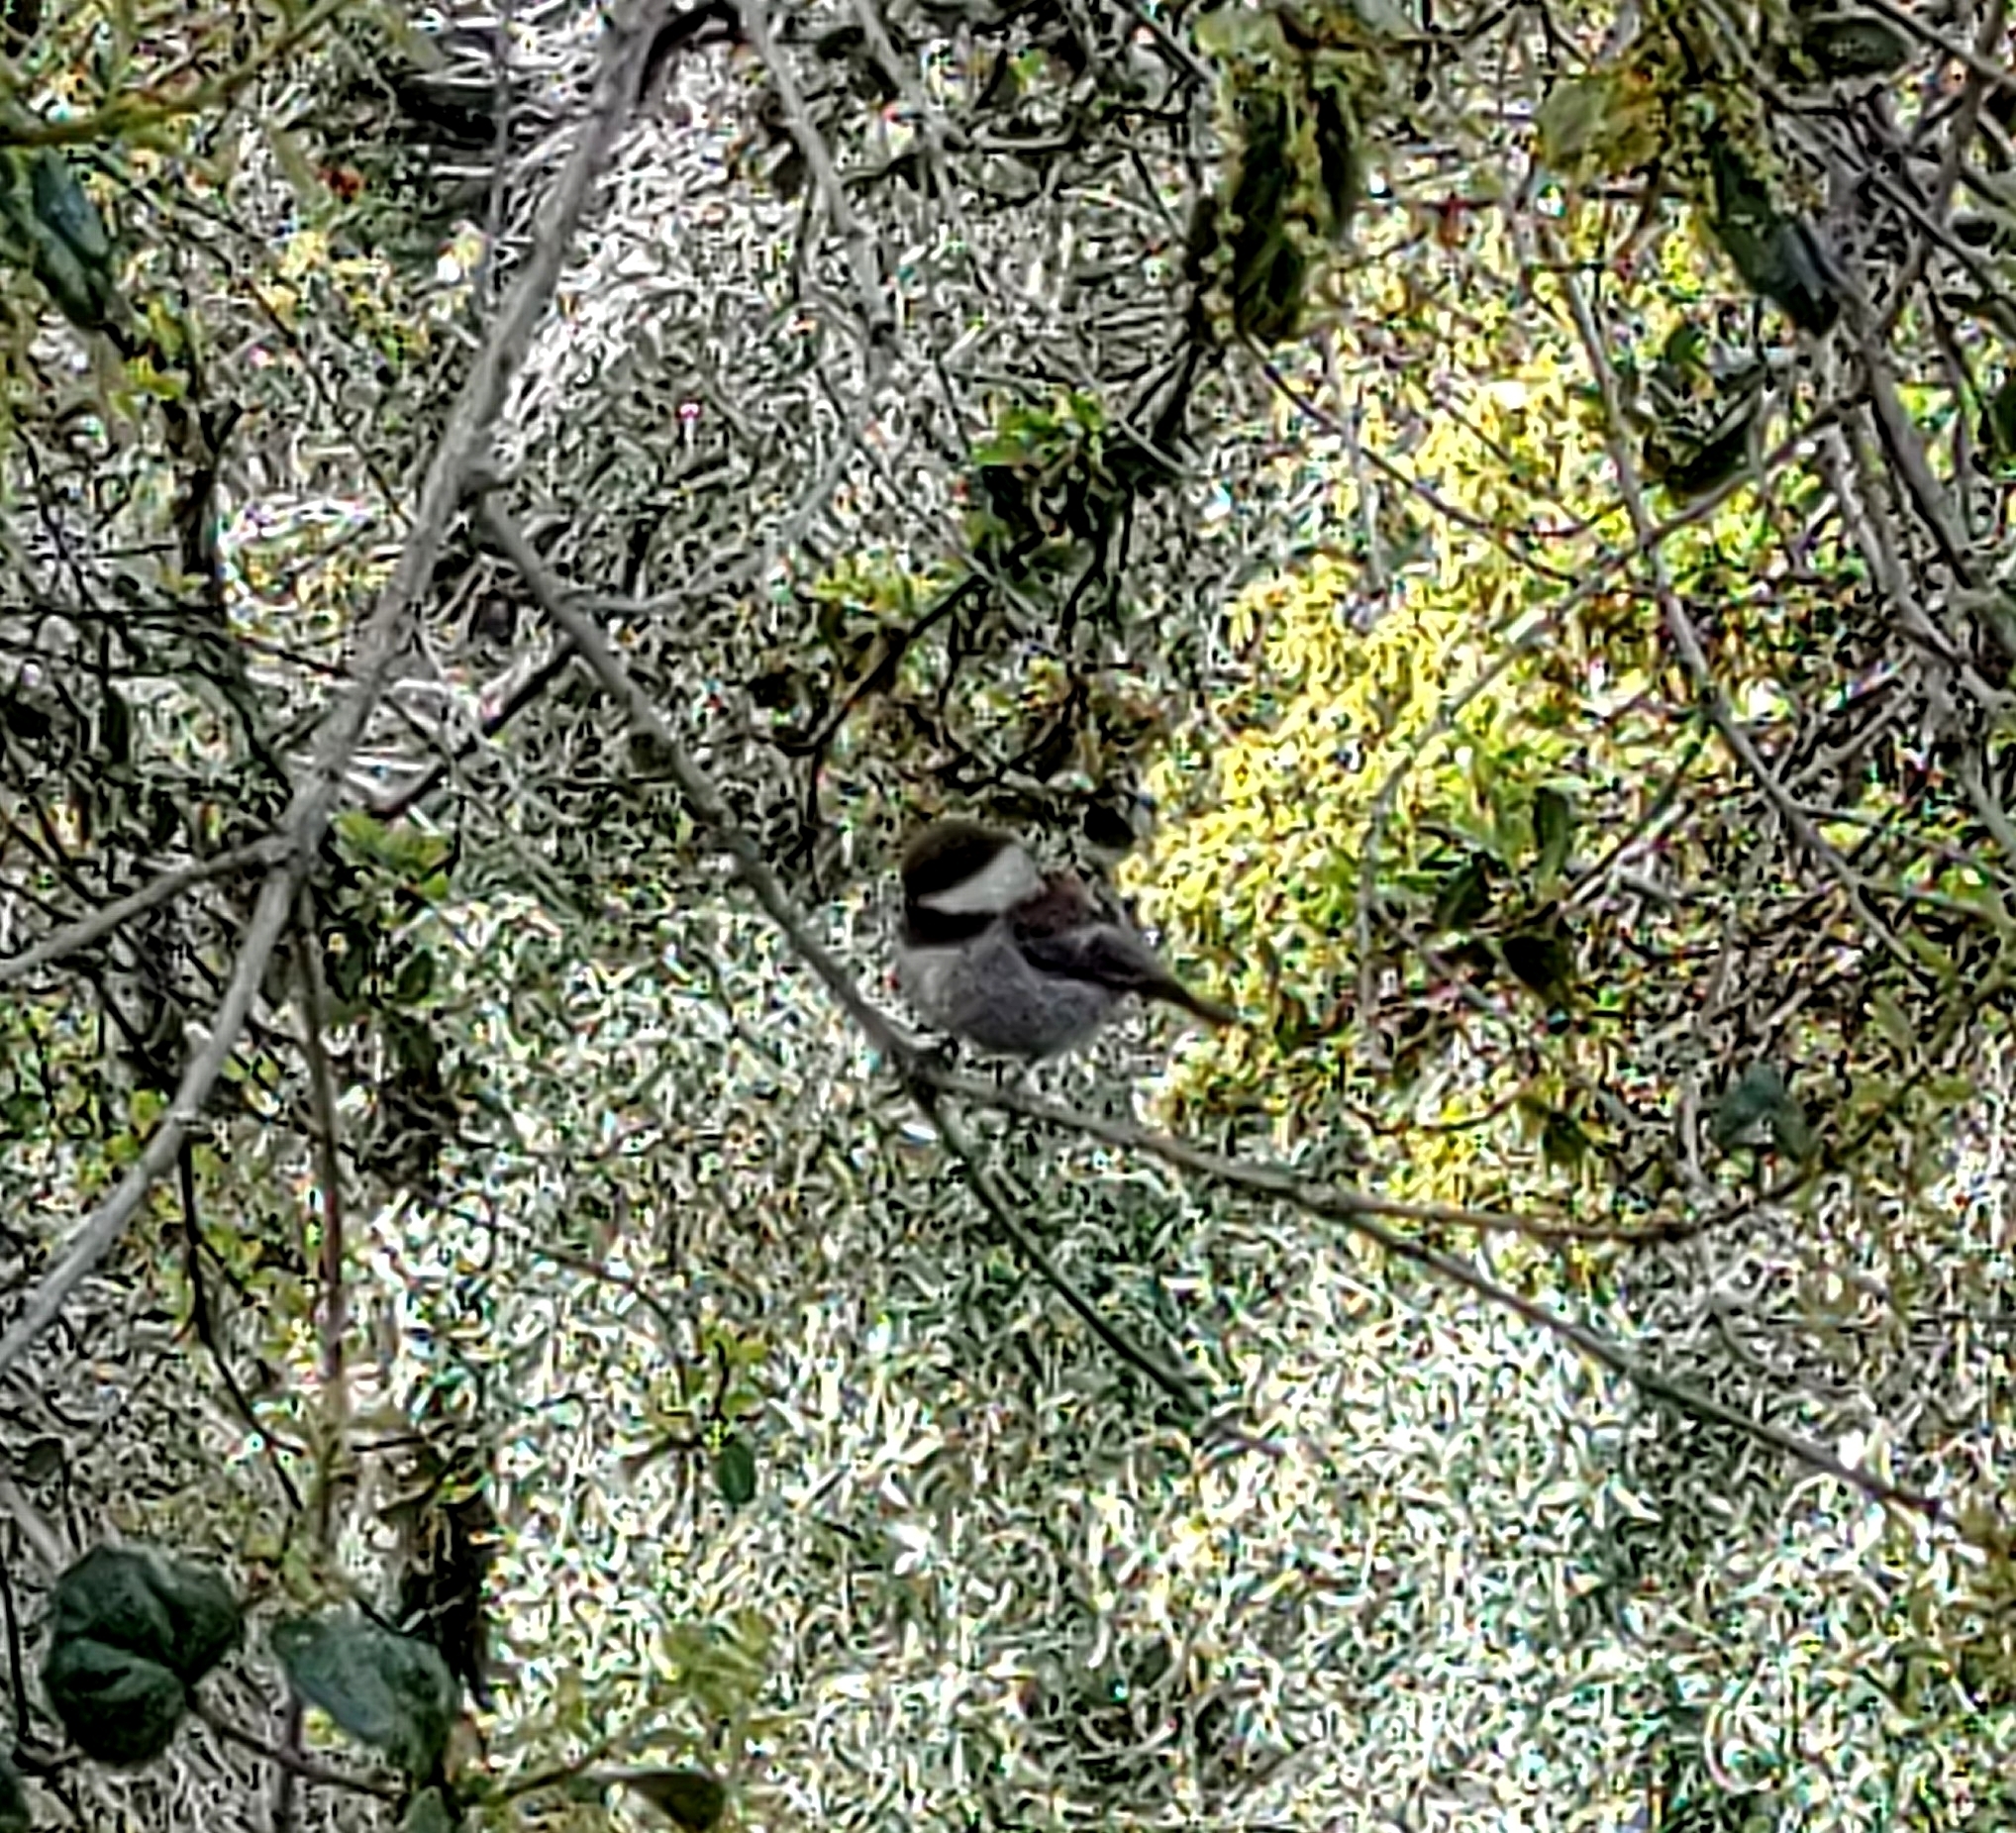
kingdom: Animalia
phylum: Chordata
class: Aves
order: Passeriformes
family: Paridae
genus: Poecile
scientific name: Poecile rufescens
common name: Chestnut-backed chickadee
